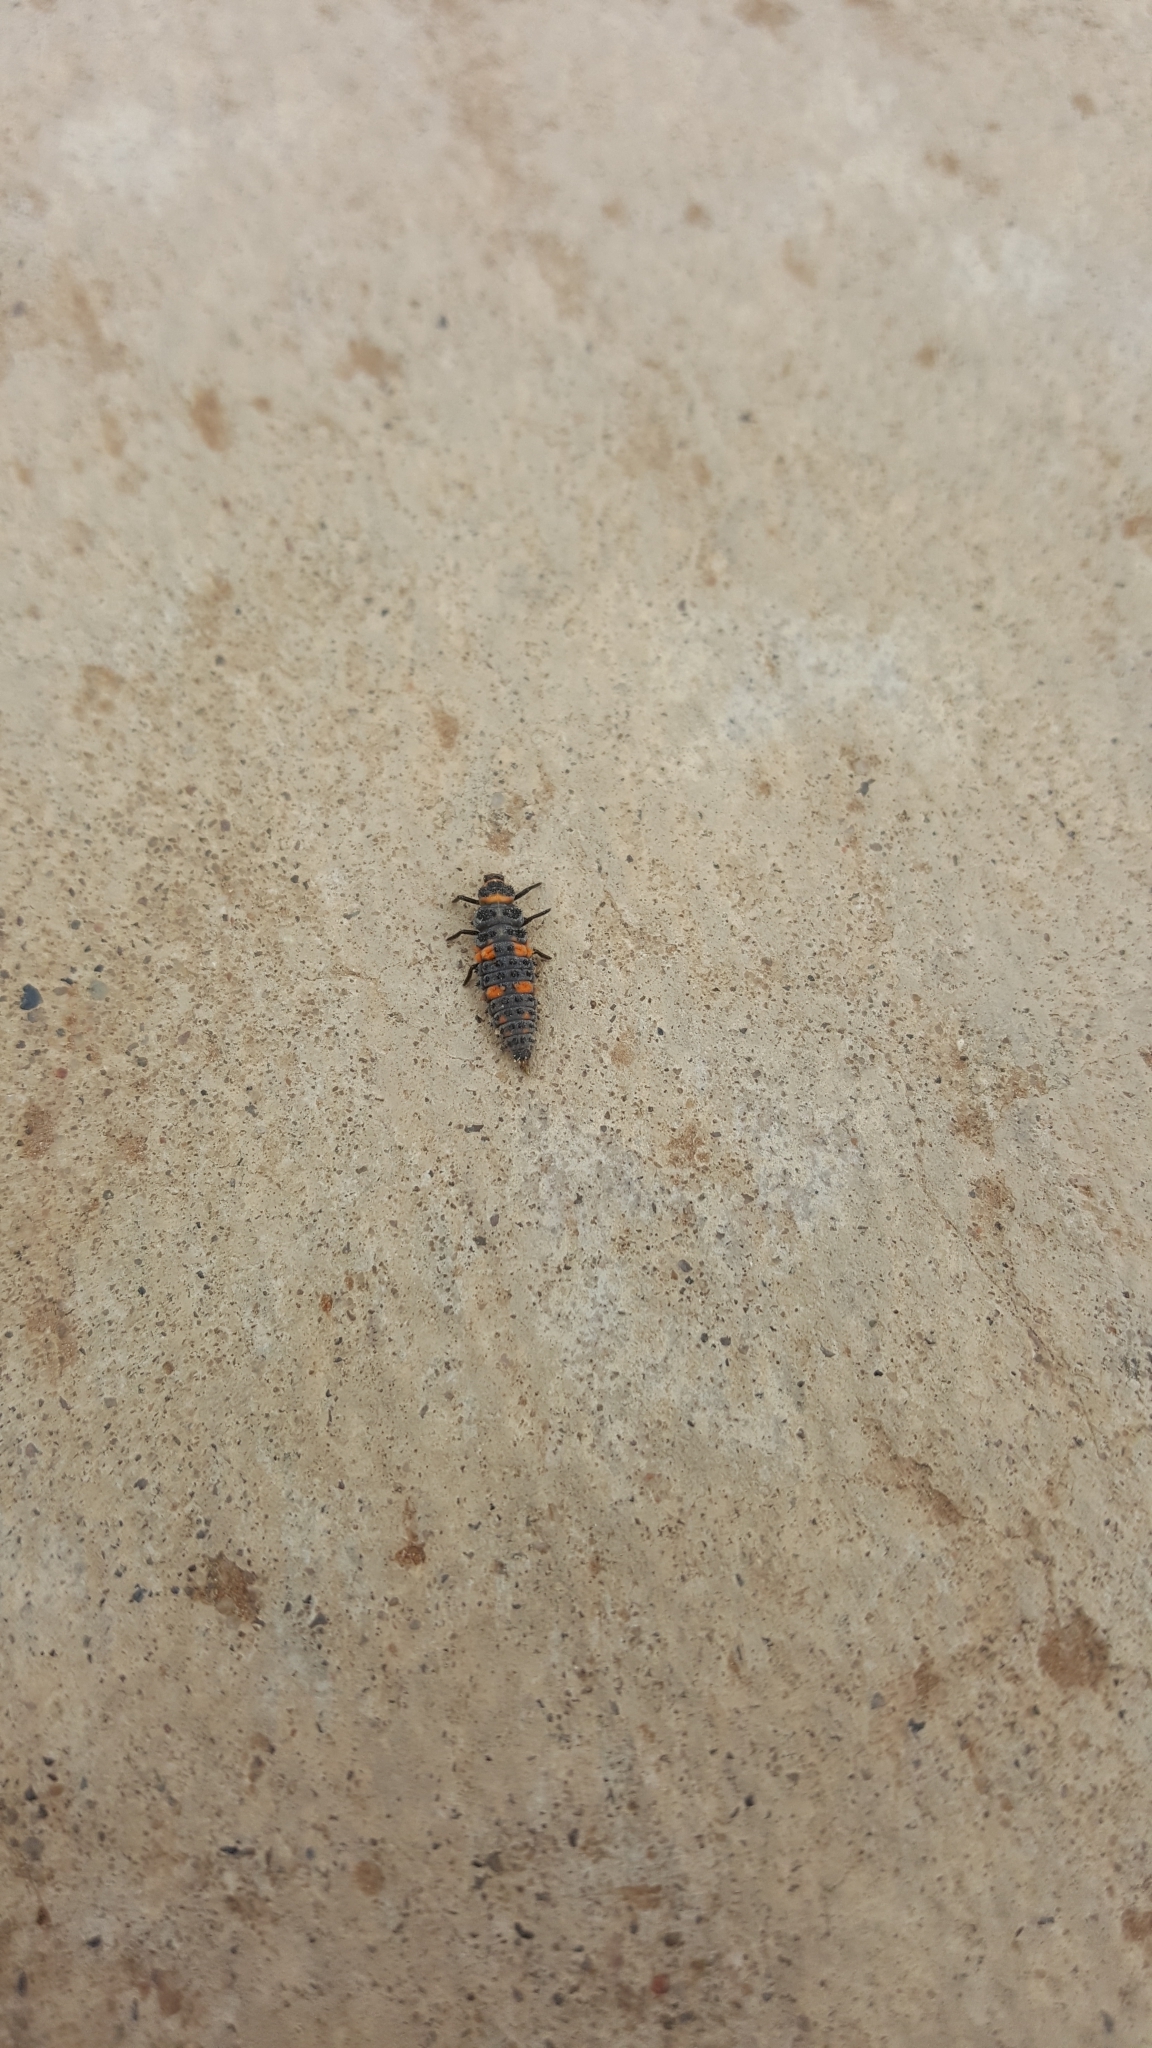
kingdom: Animalia
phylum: Arthropoda
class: Insecta
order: Coleoptera
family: Coccinellidae
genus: Hippodamia
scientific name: Hippodamia convergens
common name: Convergent lady beetle
